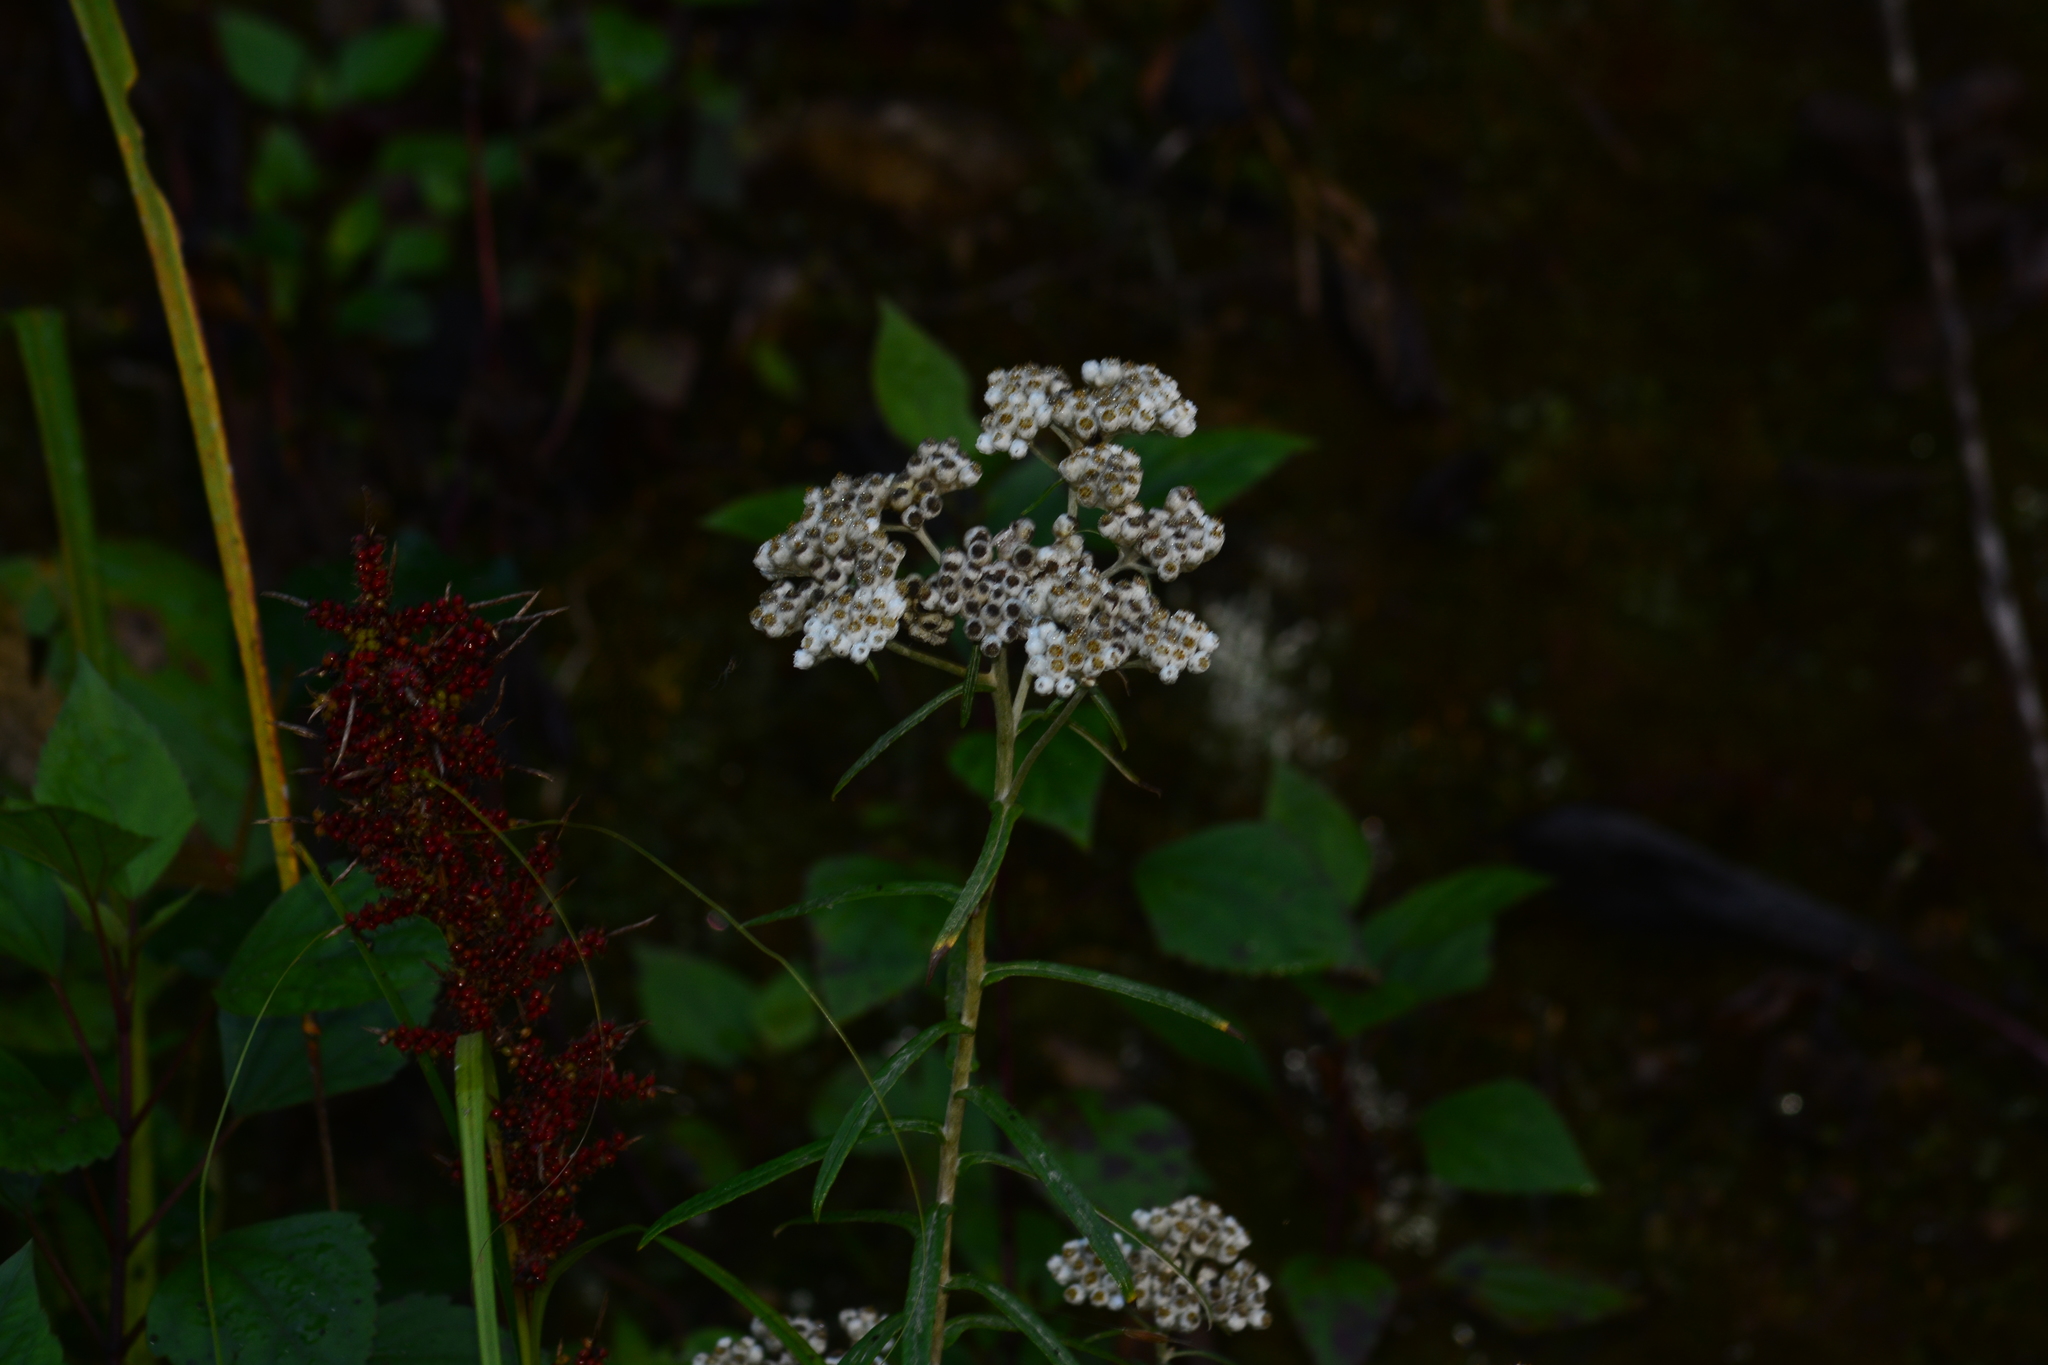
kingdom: Plantae
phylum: Tracheophyta
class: Magnoliopsida
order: Asterales
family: Asteraceae
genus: Anaphalis
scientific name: Anaphalis margaritacea
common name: Pearly everlasting
